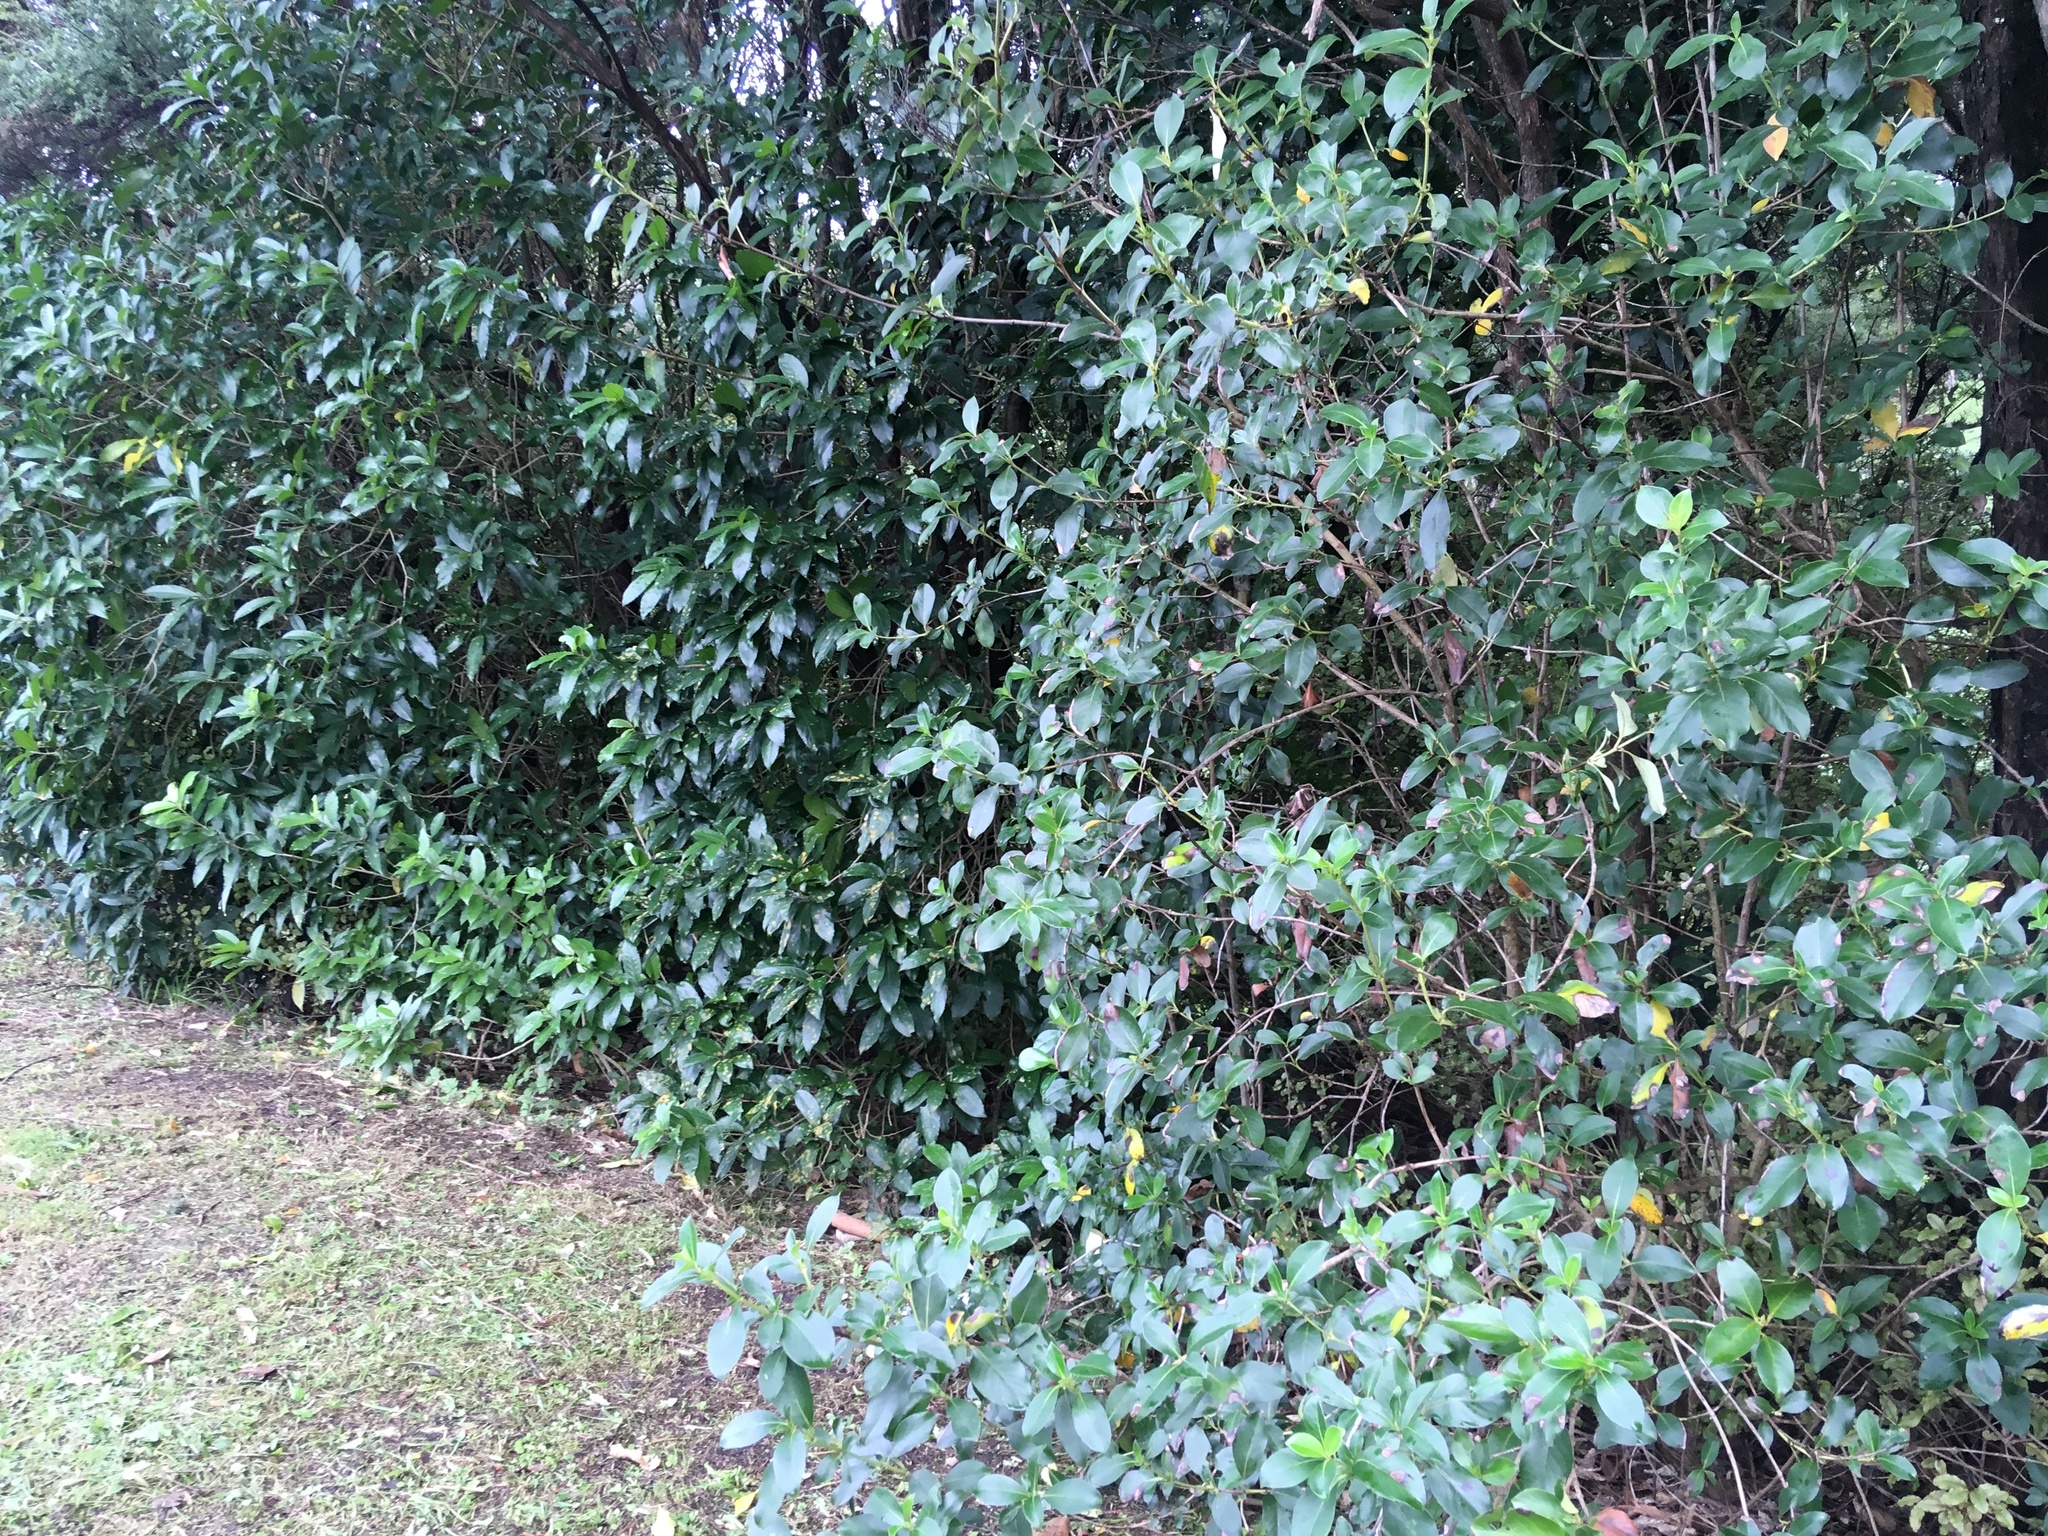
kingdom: Plantae
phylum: Tracheophyta
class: Magnoliopsida
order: Malpighiales
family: Violaceae
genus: Melicytus
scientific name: Melicytus ramiflorus
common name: Mahoe
